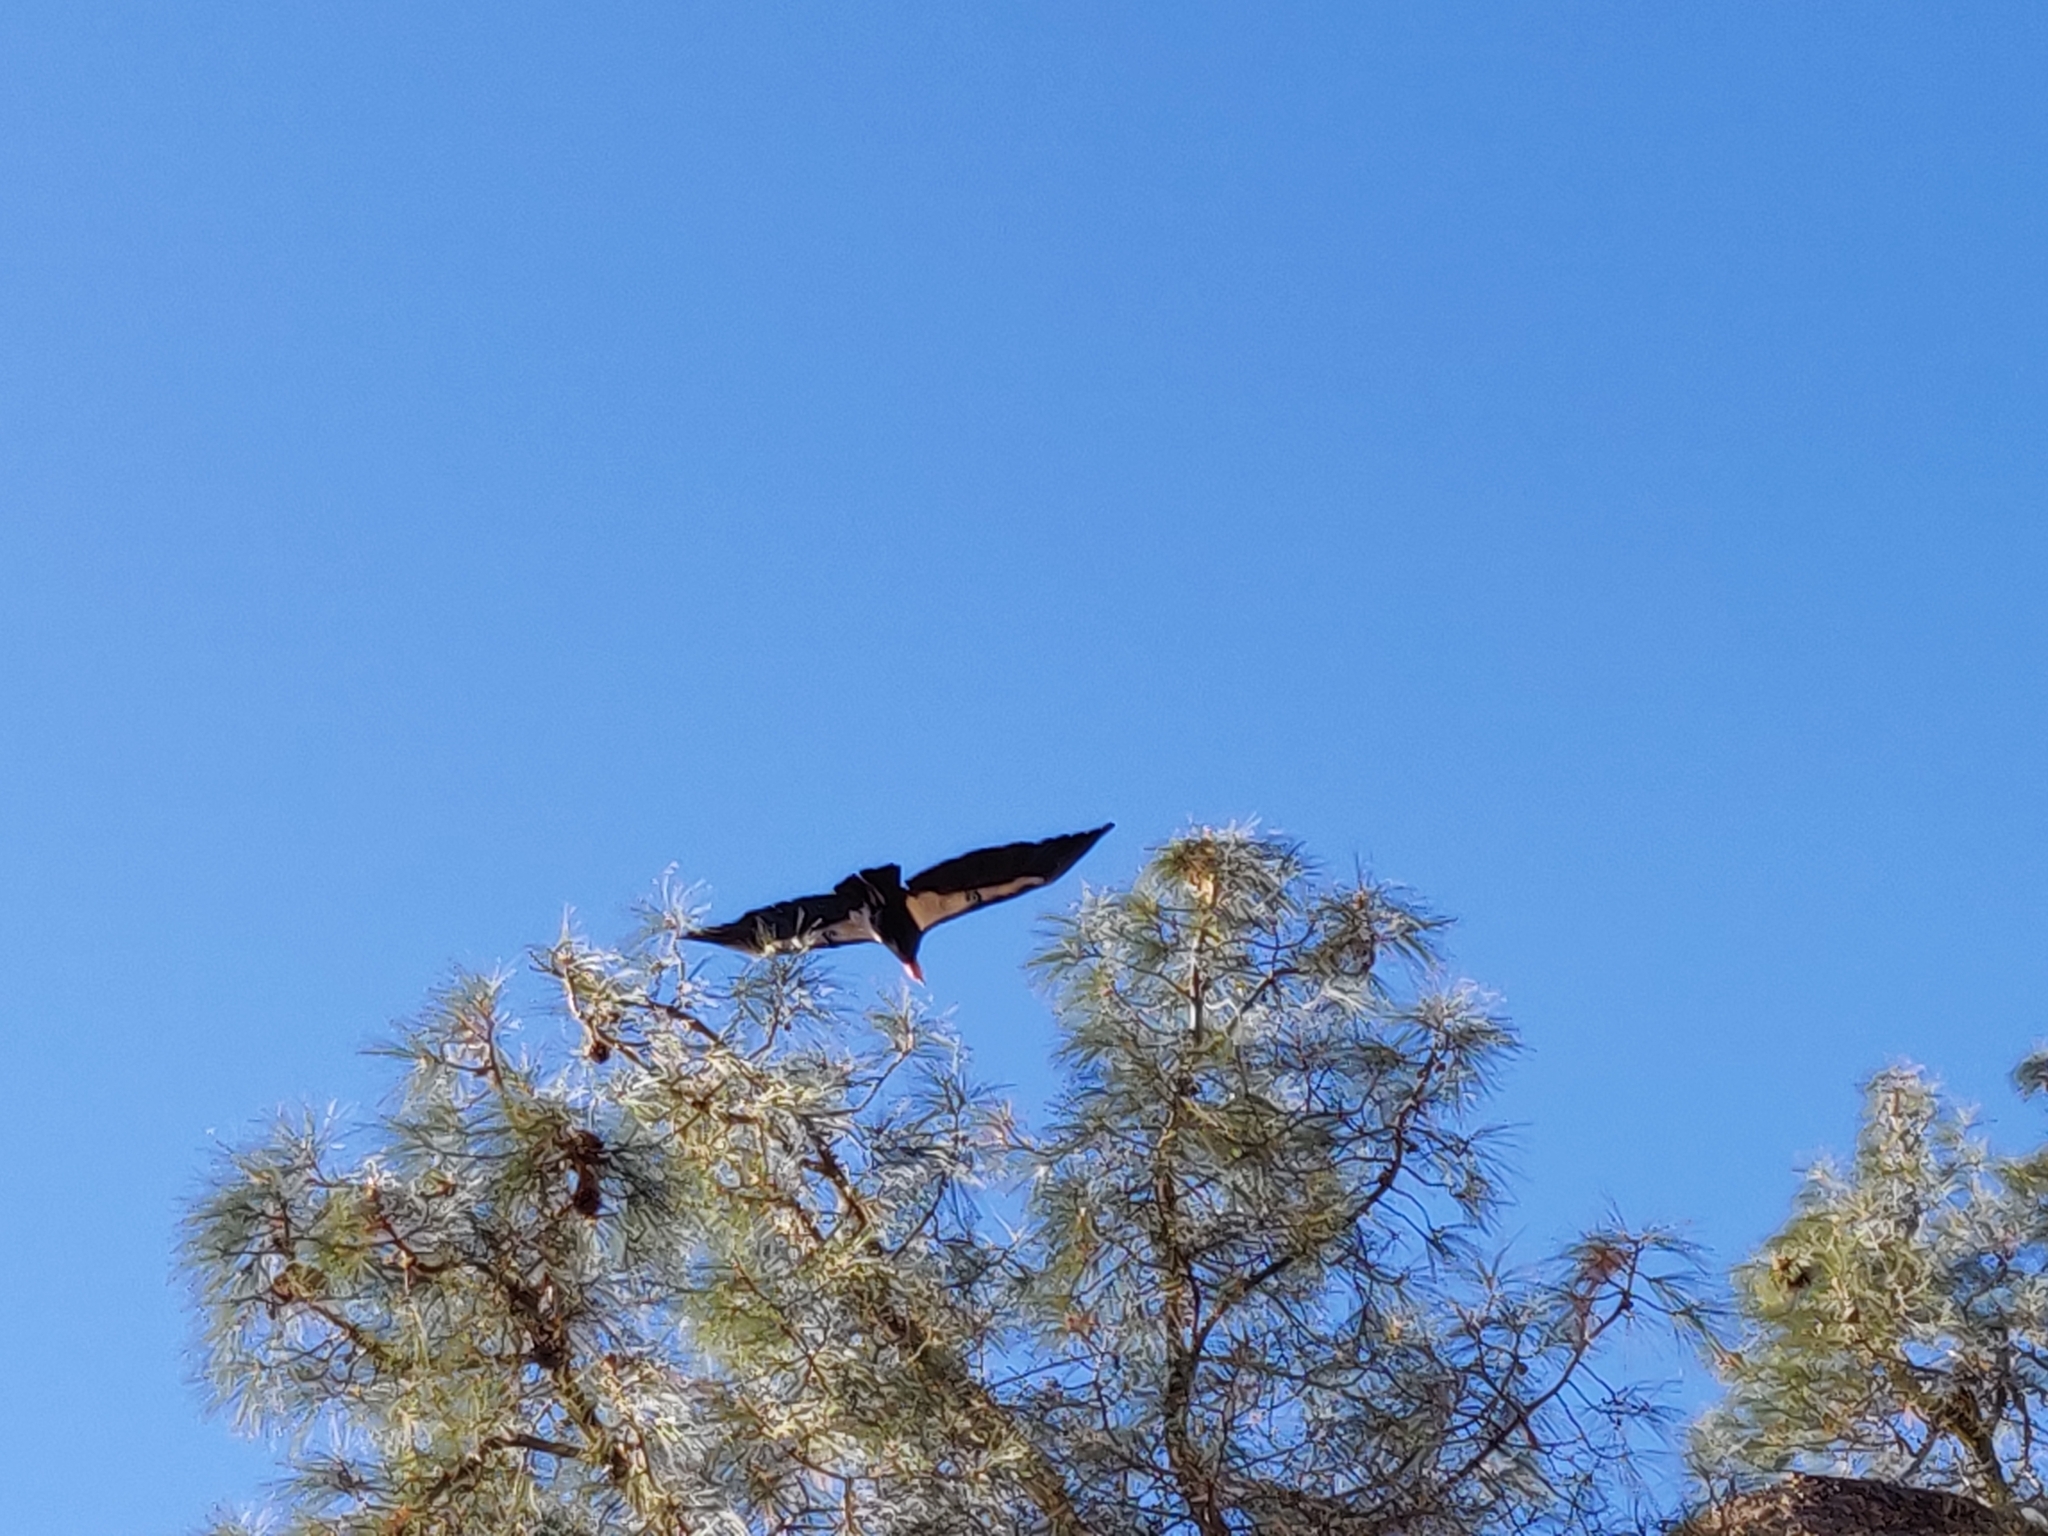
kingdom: Animalia
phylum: Chordata
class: Aves
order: Accipitriformes
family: Cathartidae
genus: Gymnogyps
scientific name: Gymnogyps californianus
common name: California condor
